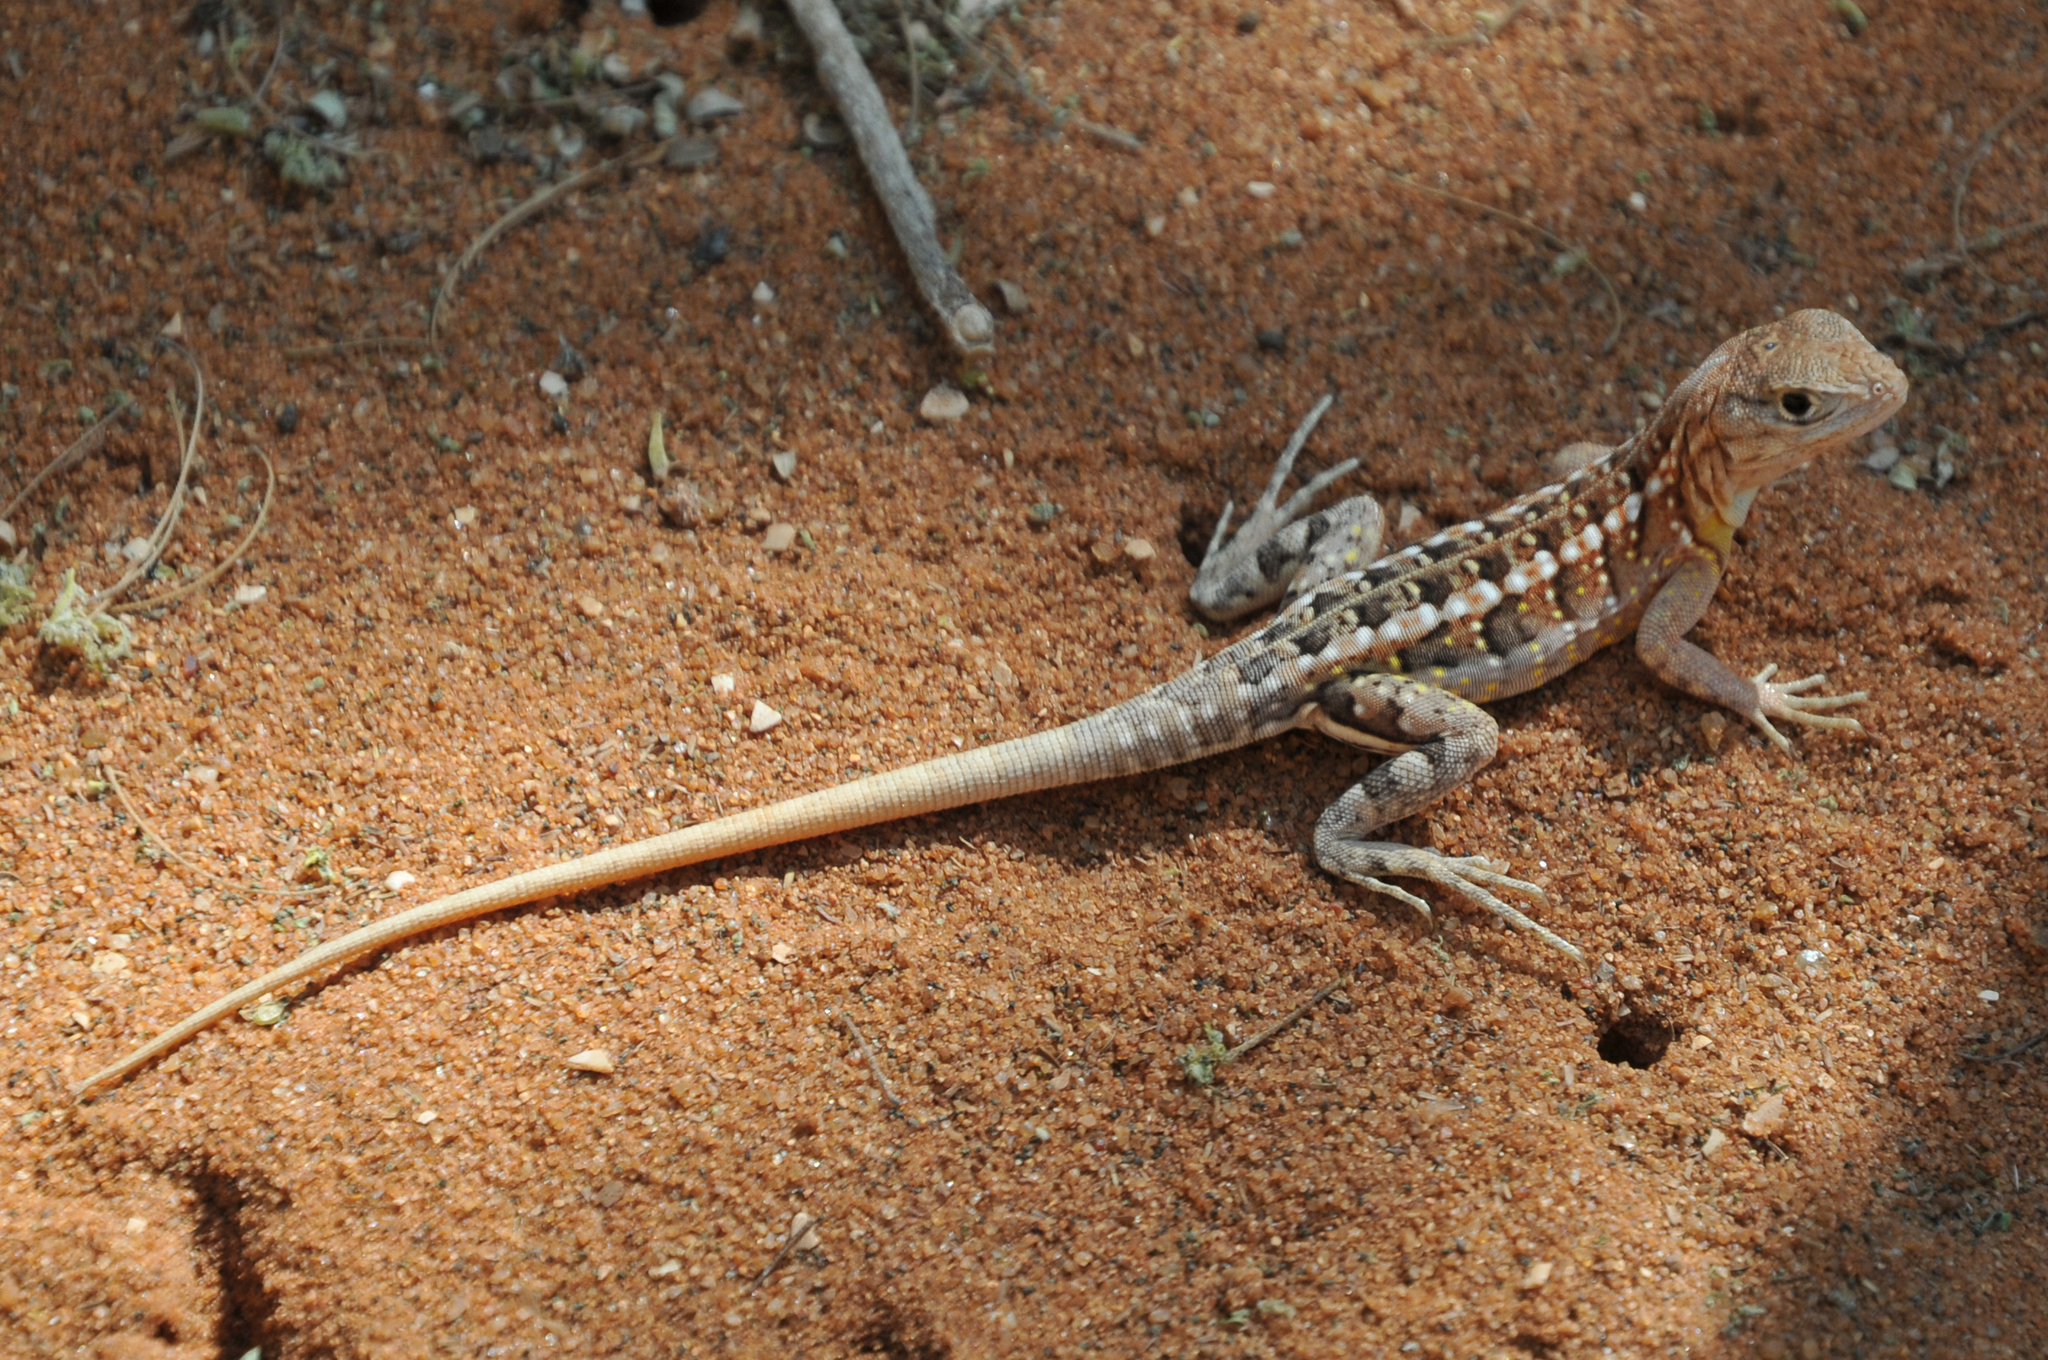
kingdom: Animalia
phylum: Chordata
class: Squamata
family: Opluridae
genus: Chalarodon
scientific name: Chalarodon madagascariensis
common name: Madagascar iguana
